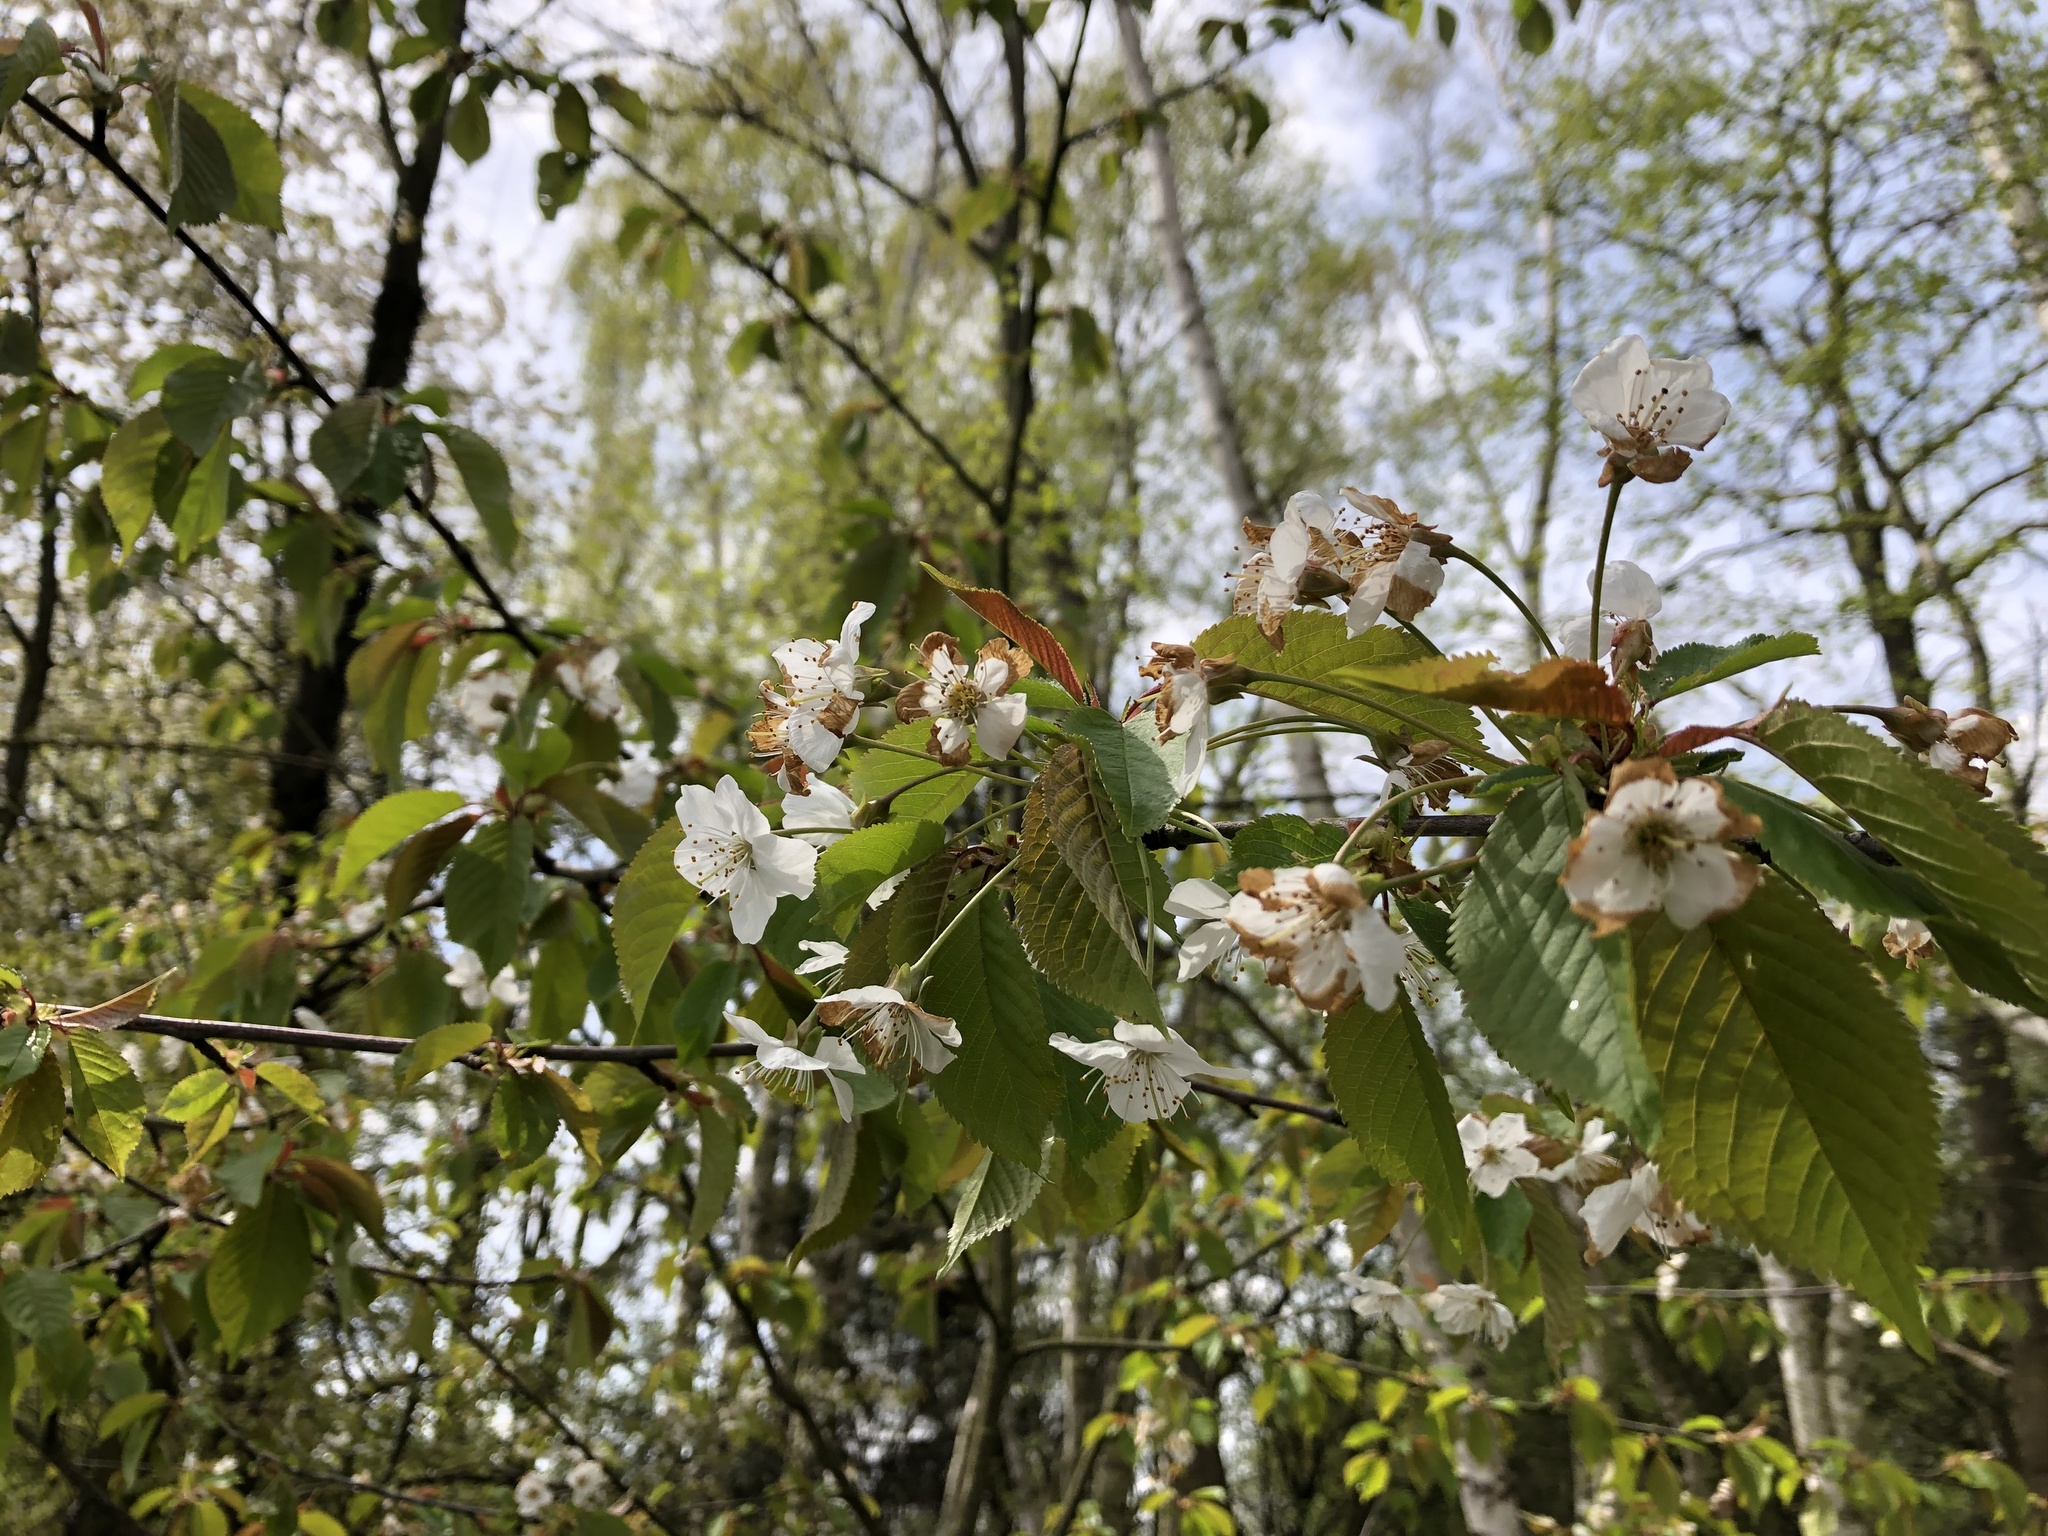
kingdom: Plantae
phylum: Tracheophyta
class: Magnoliopsida
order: Rosales
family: Rosaceae
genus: Prunus
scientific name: Prunus avium
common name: Sweet cherry
